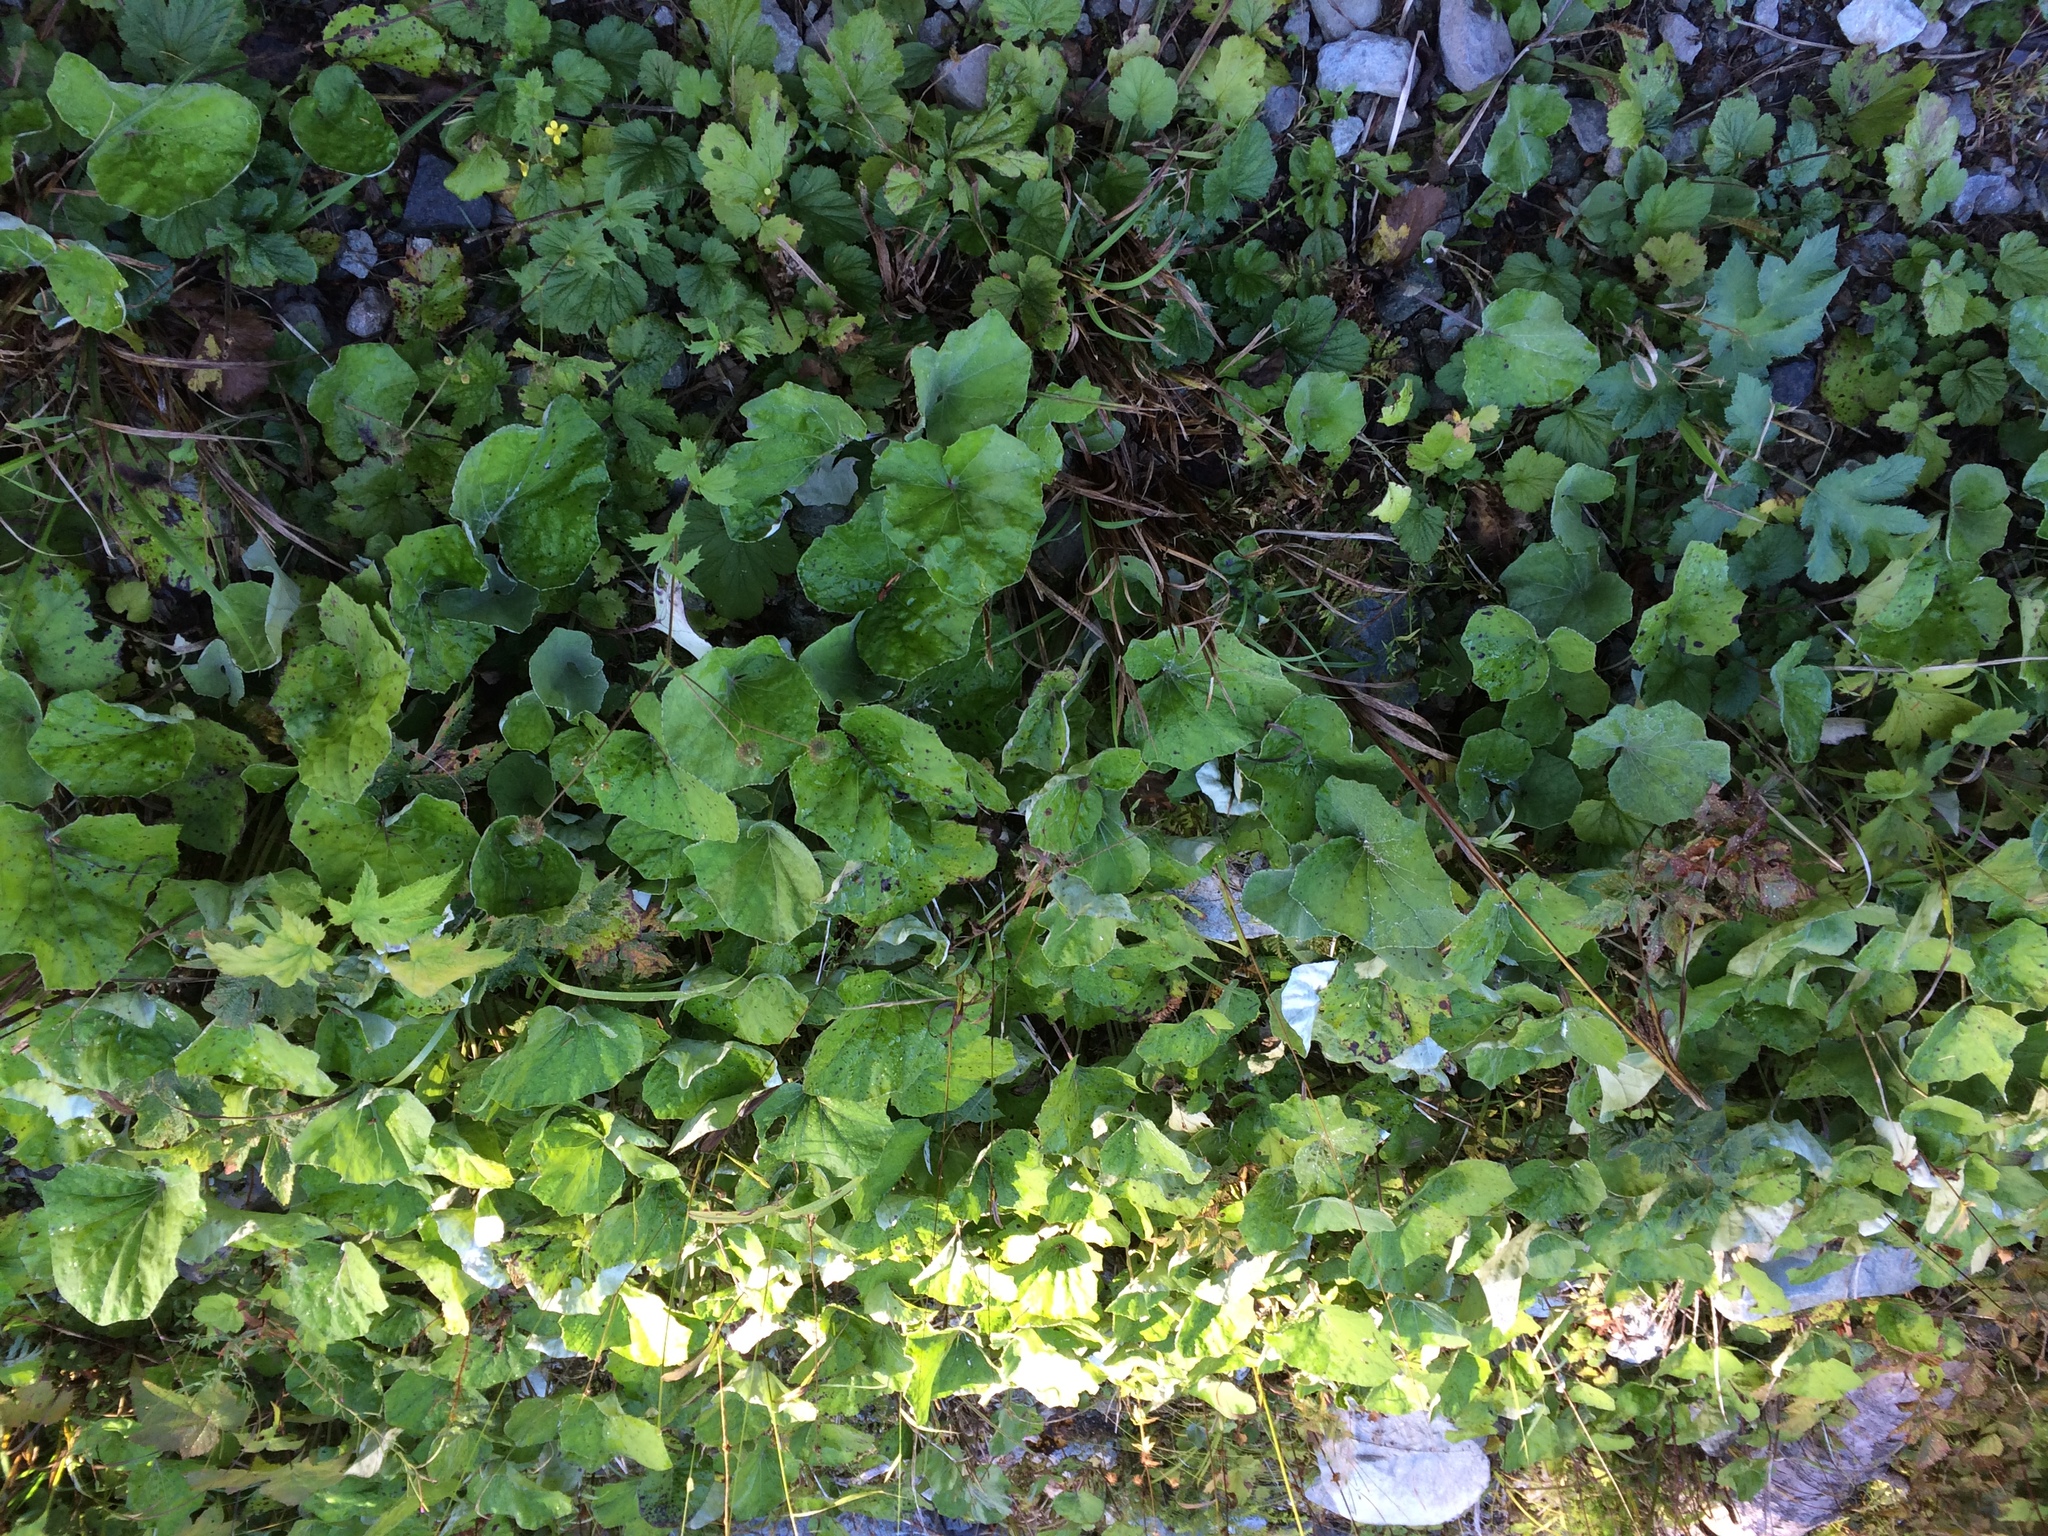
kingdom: Plantae
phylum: Tracheophyta
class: Magnoliopsida
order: Asterales
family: Asteraceae
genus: Tussilago
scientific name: Tussilago farfara
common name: Coltsfoot
